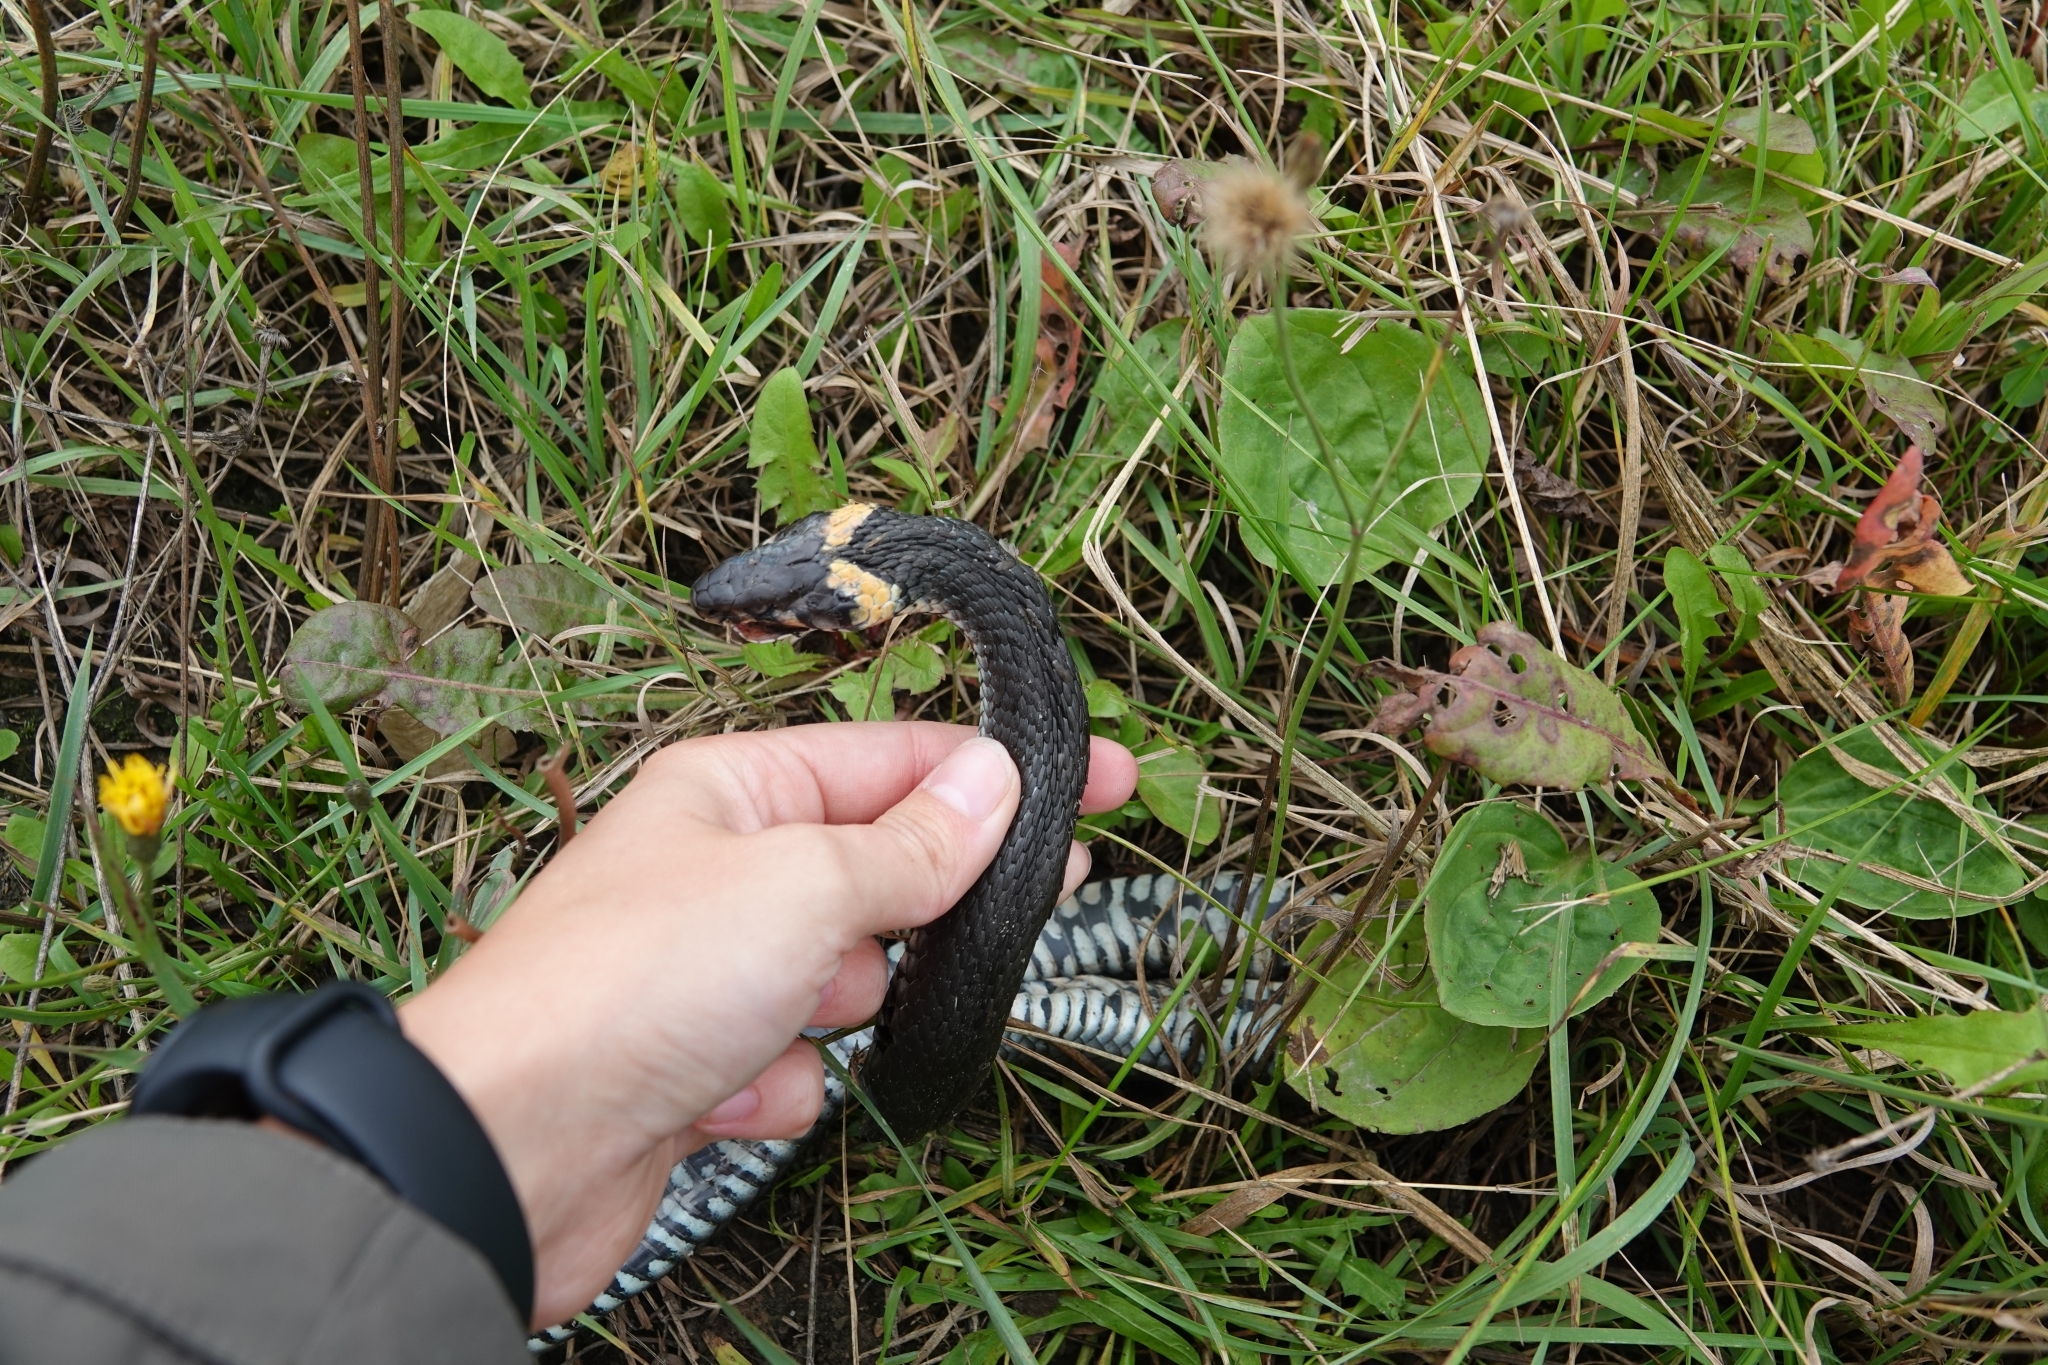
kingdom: Animalia
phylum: Chordata
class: Squamata
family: Colubridae
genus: Natrix
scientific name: Natrix natrix
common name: Grass snake
